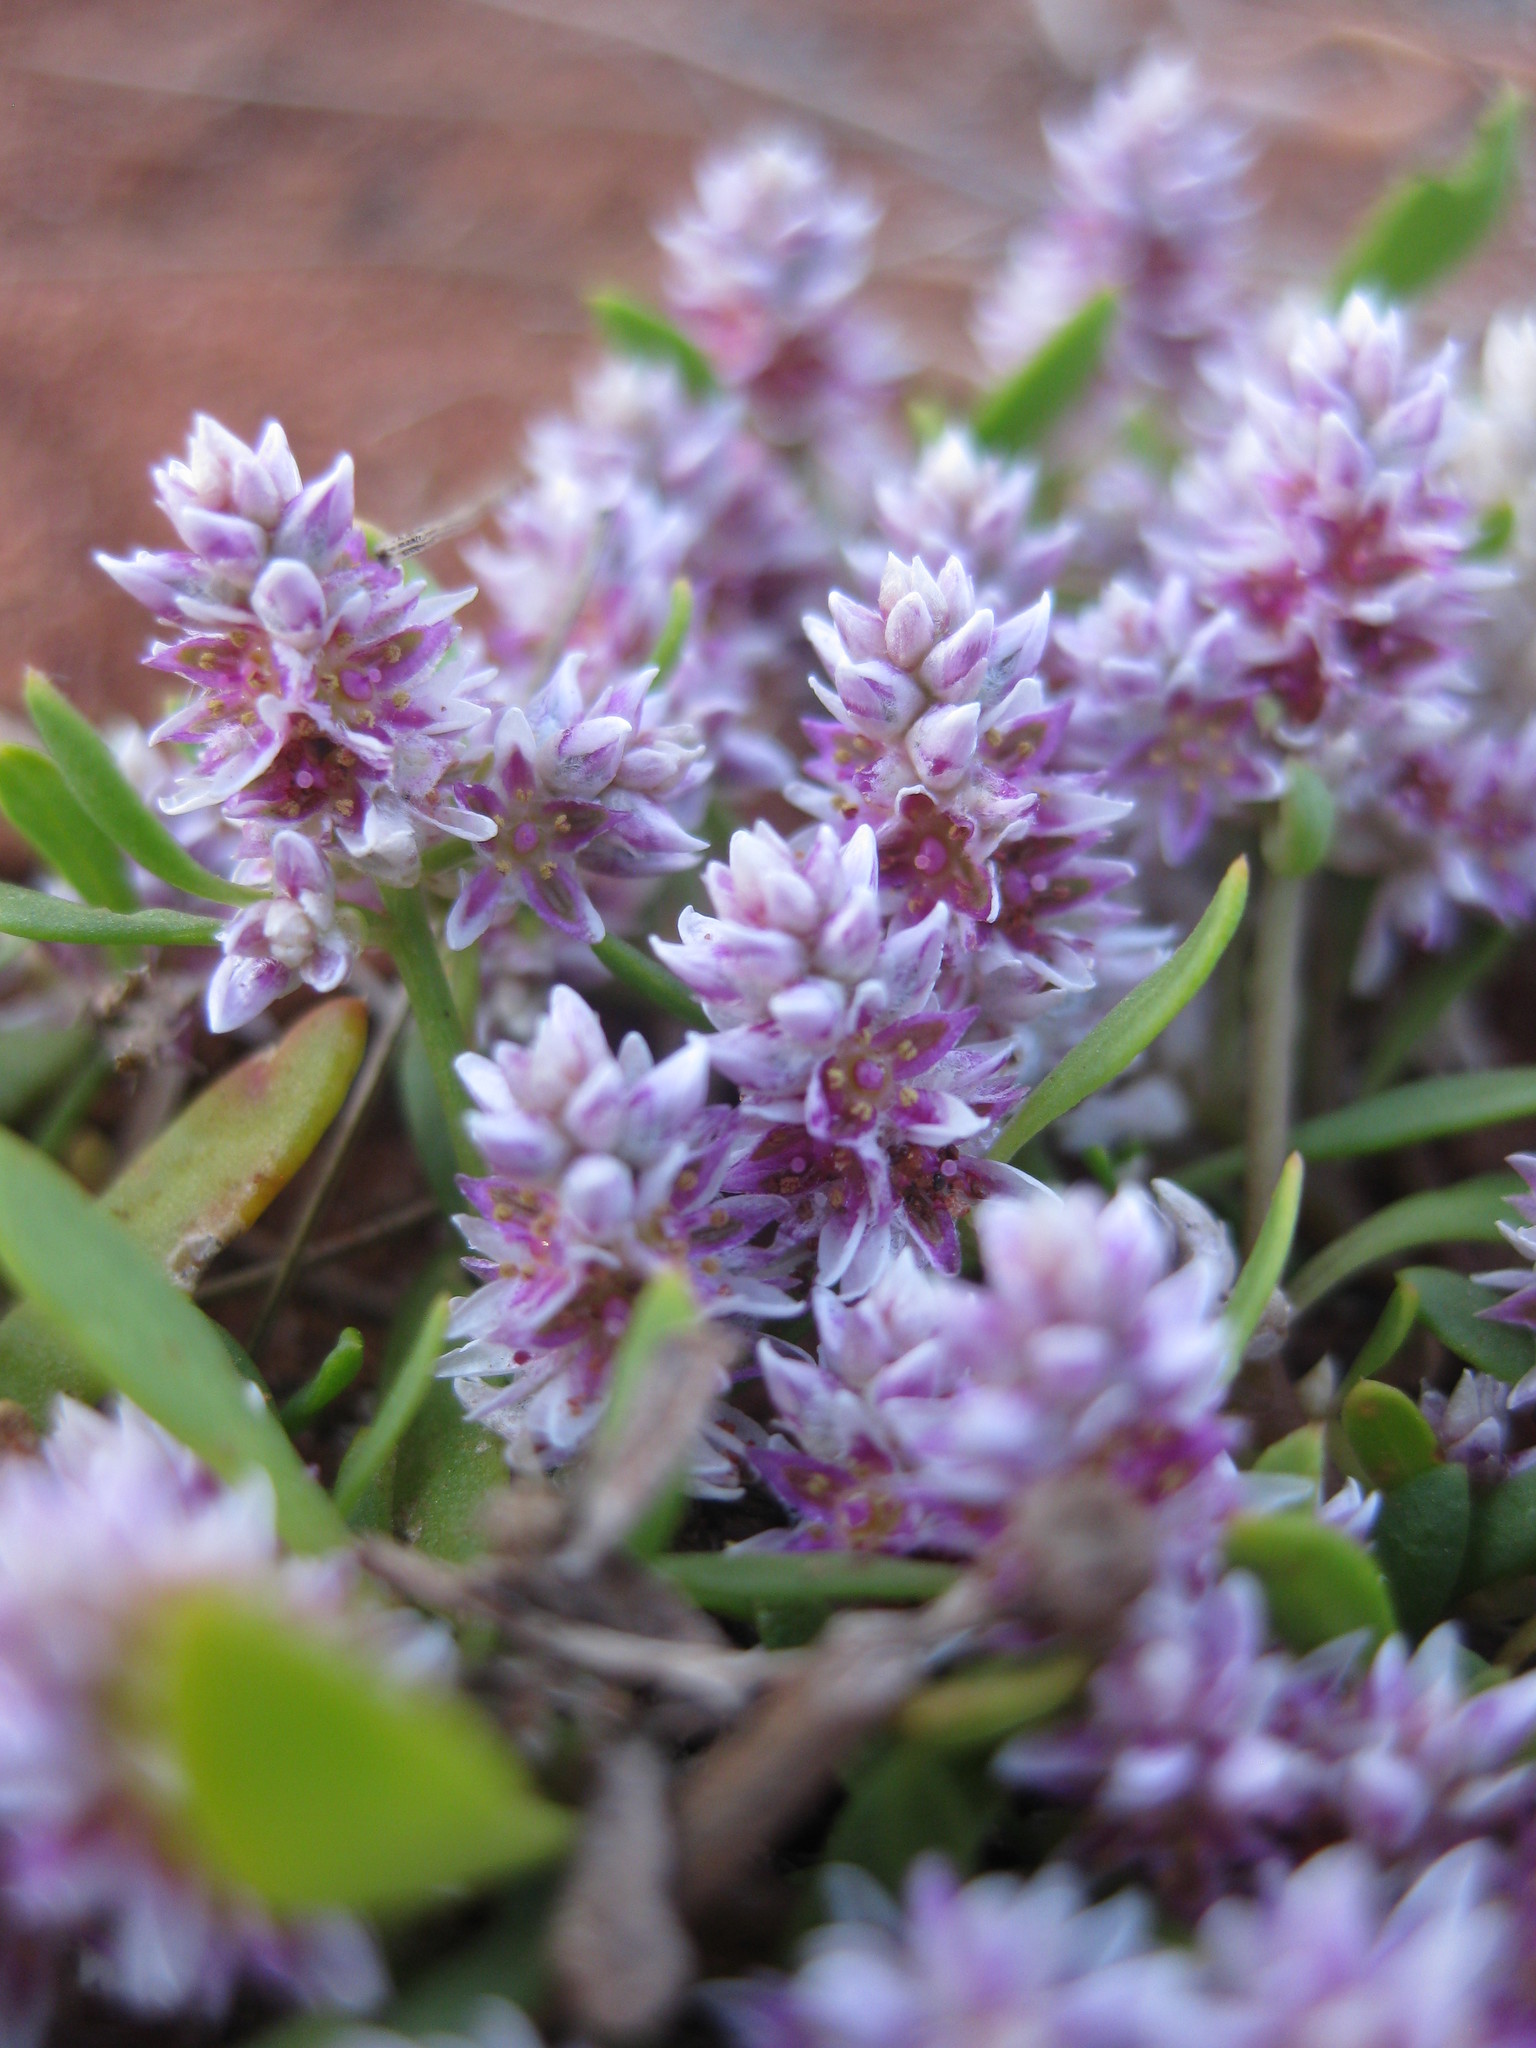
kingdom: Plantae
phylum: Tracheophyta
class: Magnoliopsida
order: Caryophyllales
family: Amaranthaceae
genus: Ptilotus
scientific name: Ptilotus gomphrenoides
